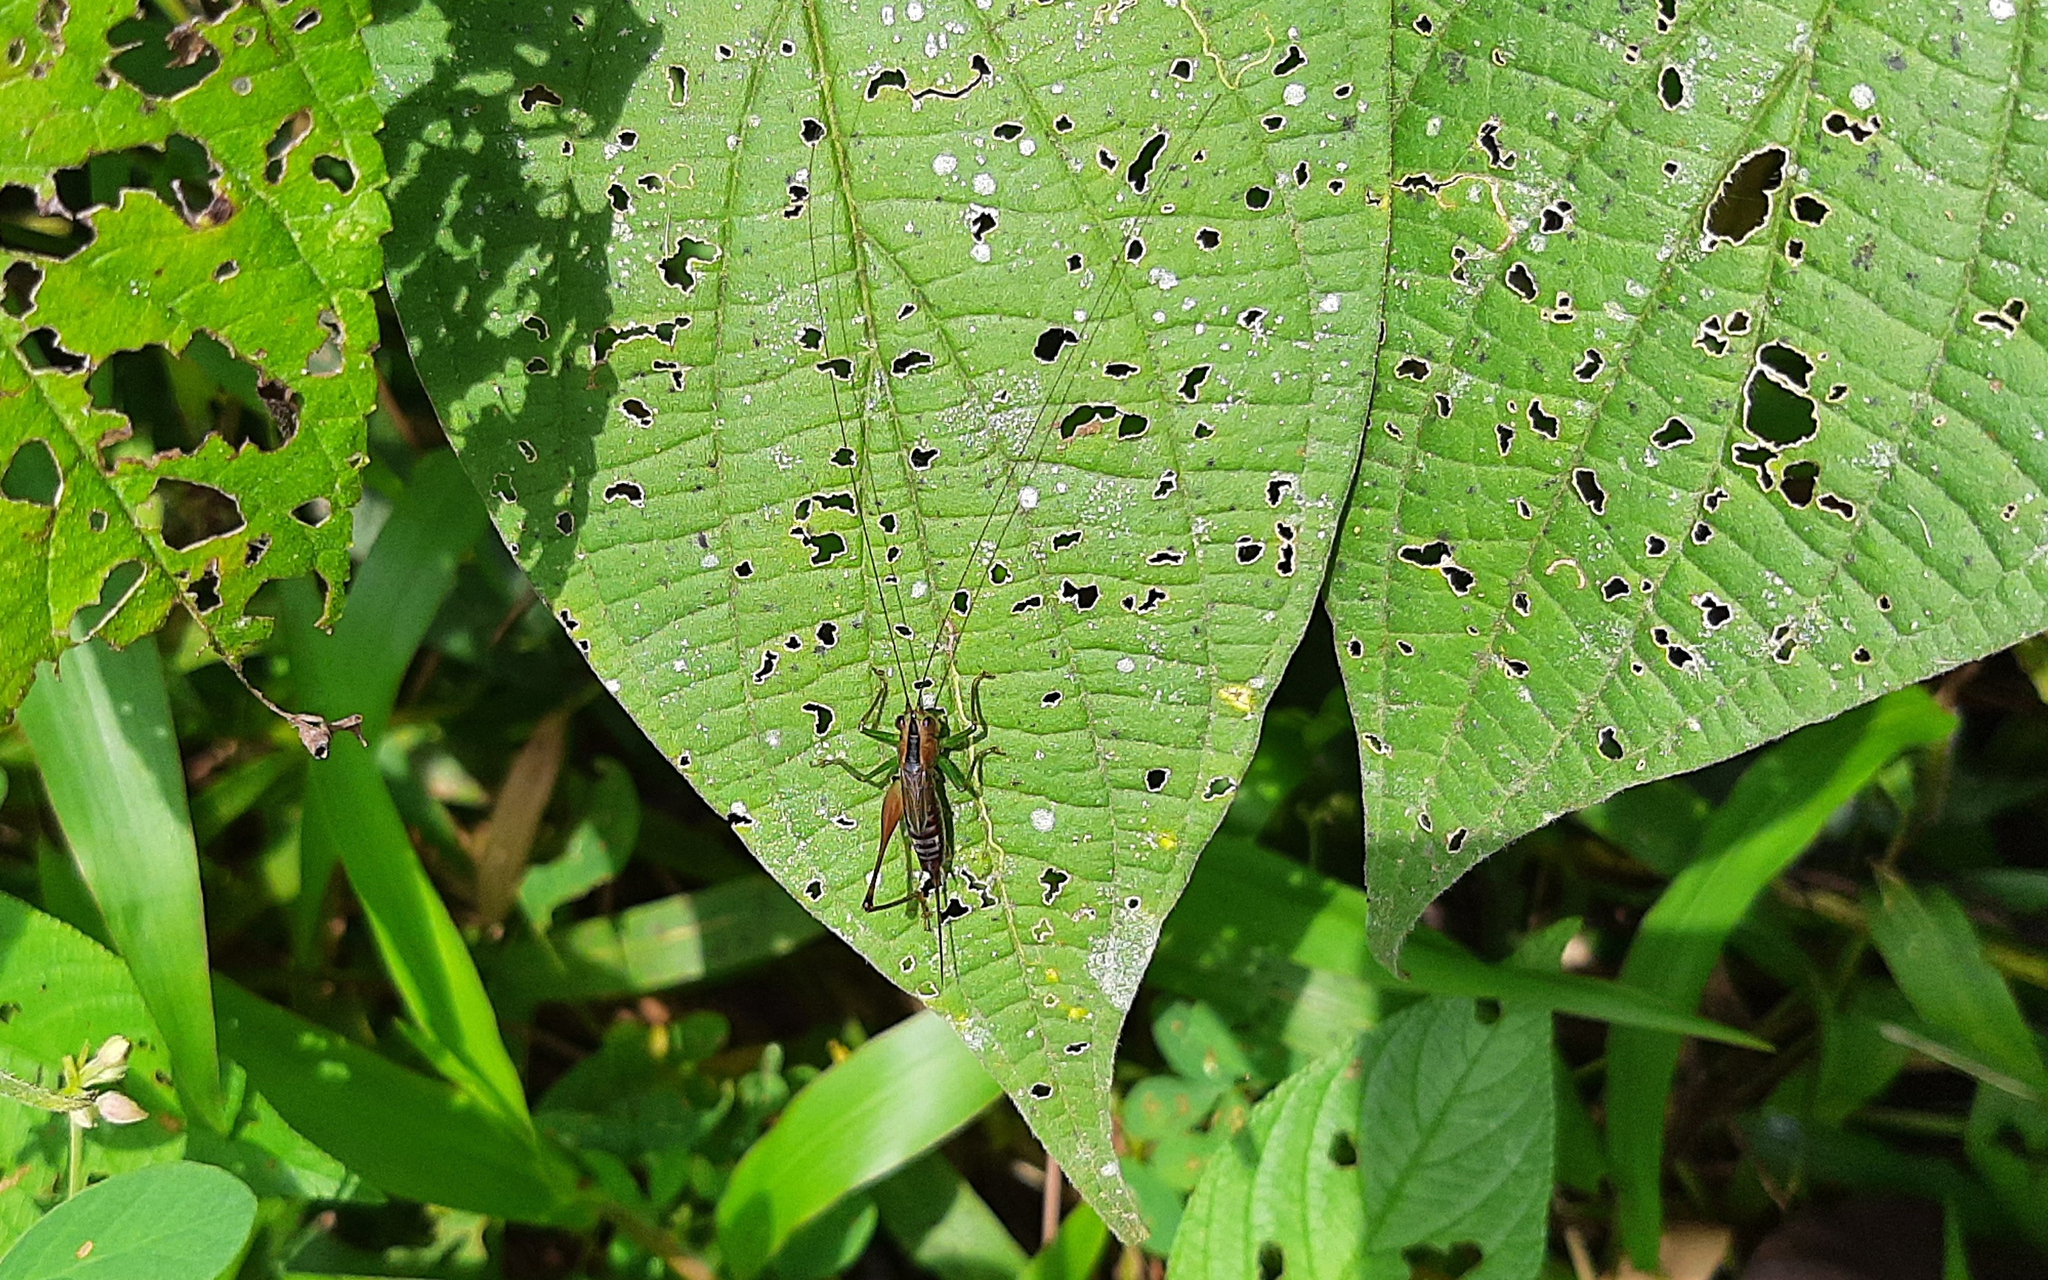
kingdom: Animalia
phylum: Arthropoda
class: Insecta
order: Orthoptera
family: Tettigoniidae
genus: Conocephalus
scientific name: Conocephalus versicolor
